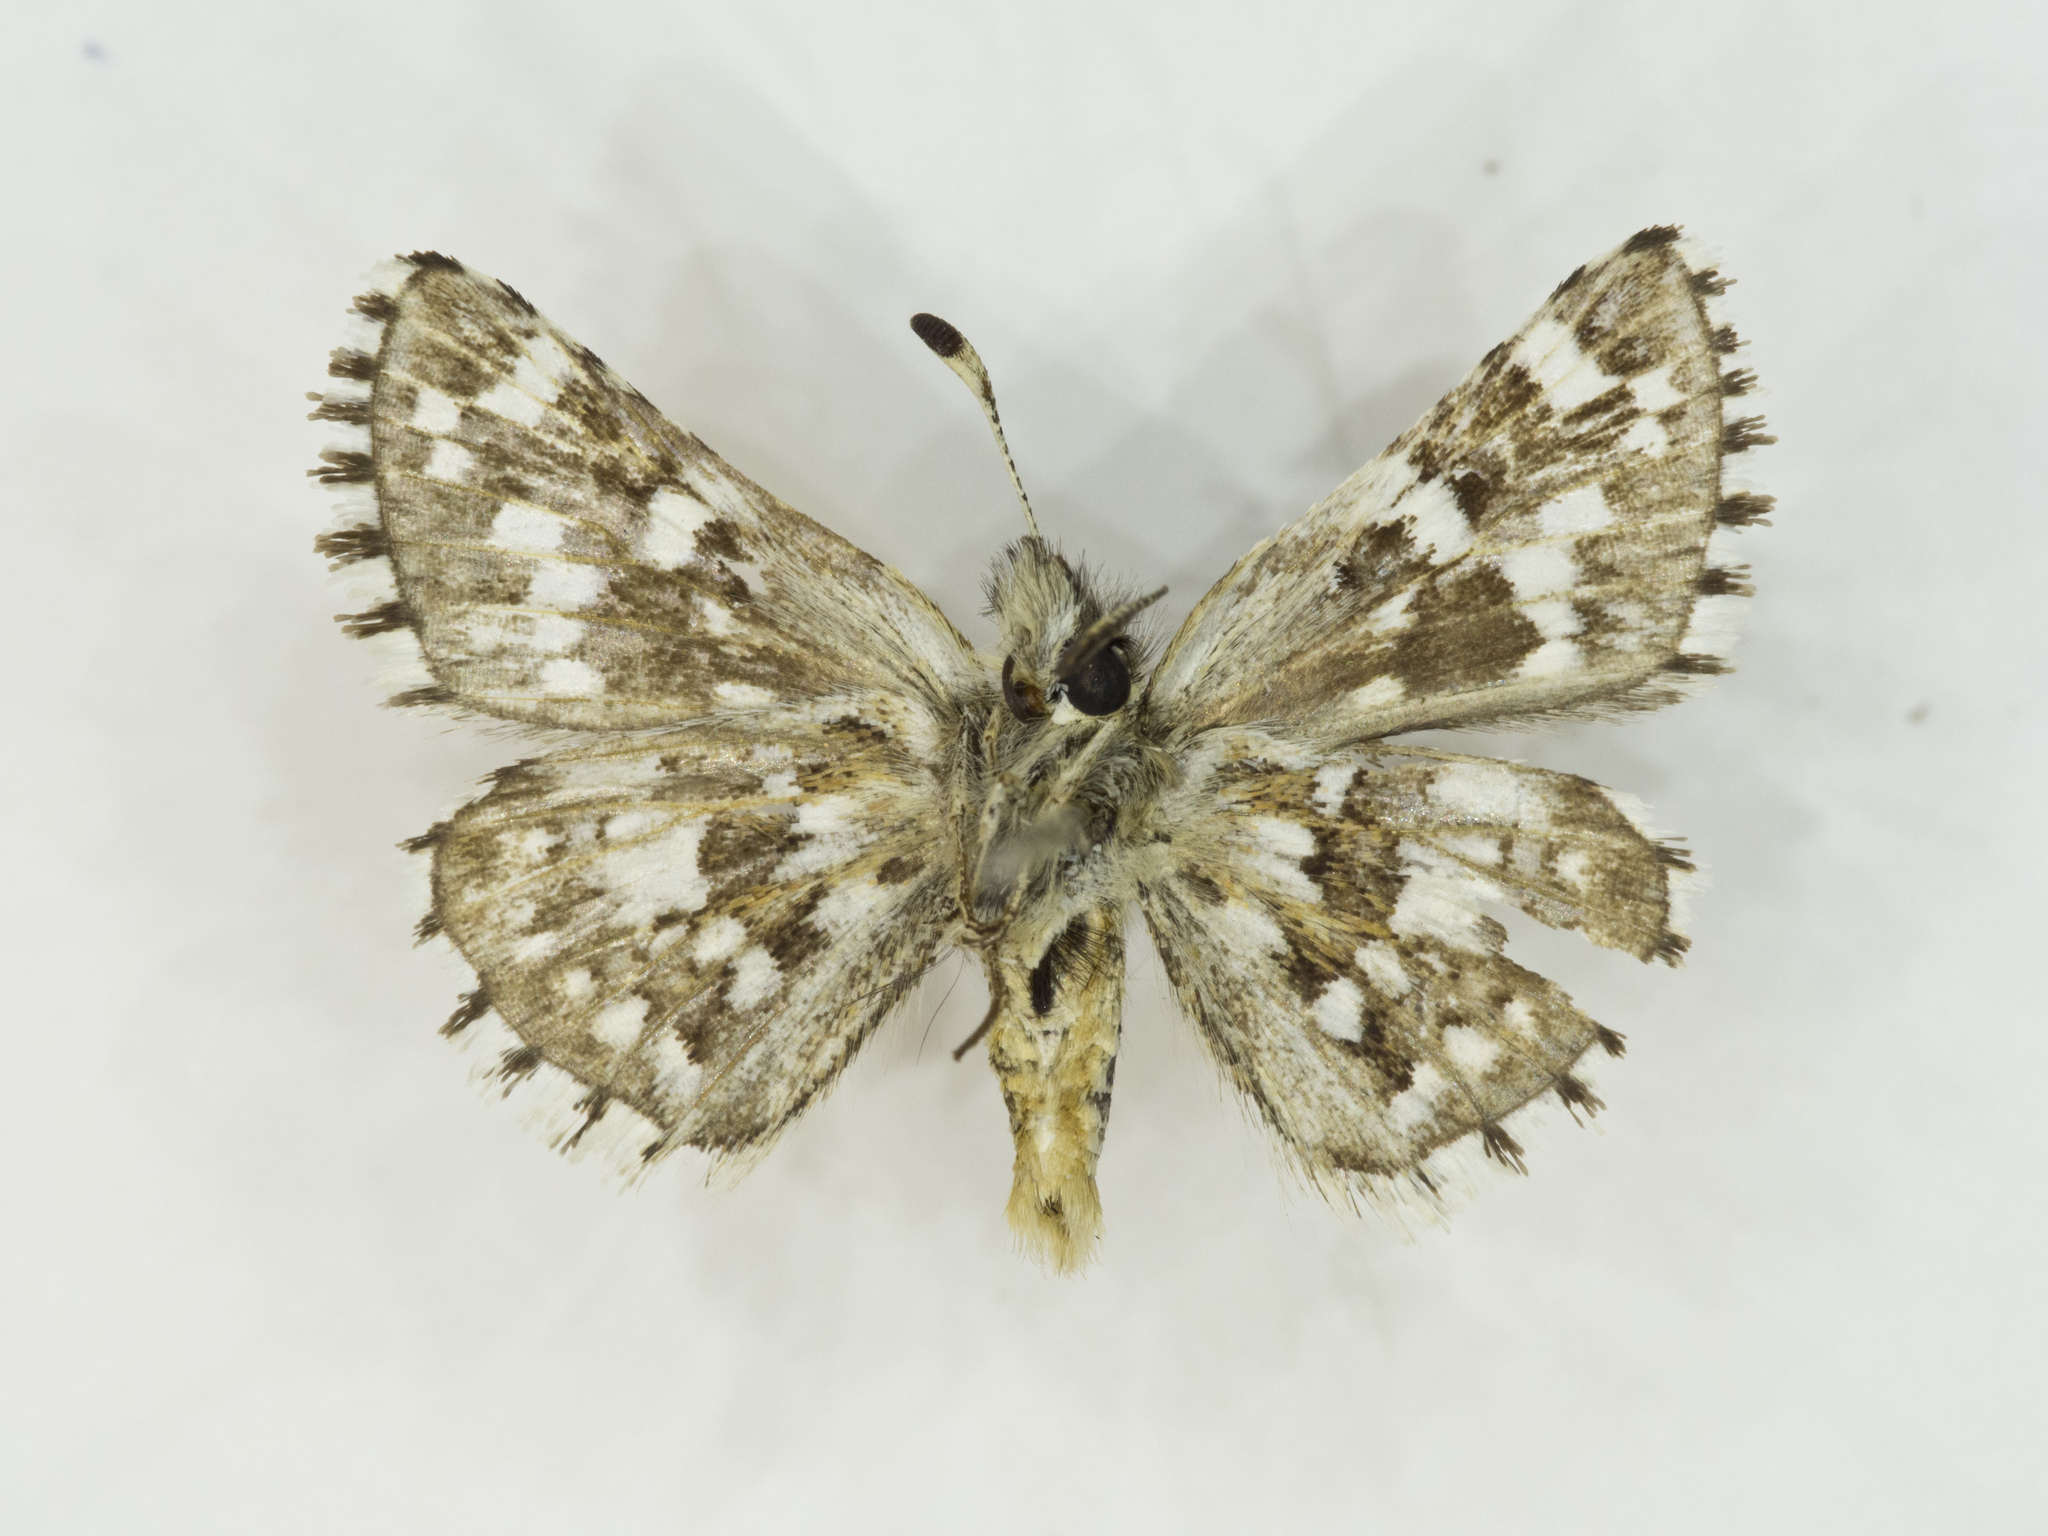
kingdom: Animalia
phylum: Arthropoda
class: Insecta
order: Lepidoptera
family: Hesperiidae
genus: Pyrgus
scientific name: Pyrgus ruralis
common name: Two-banded checkered-skipper
